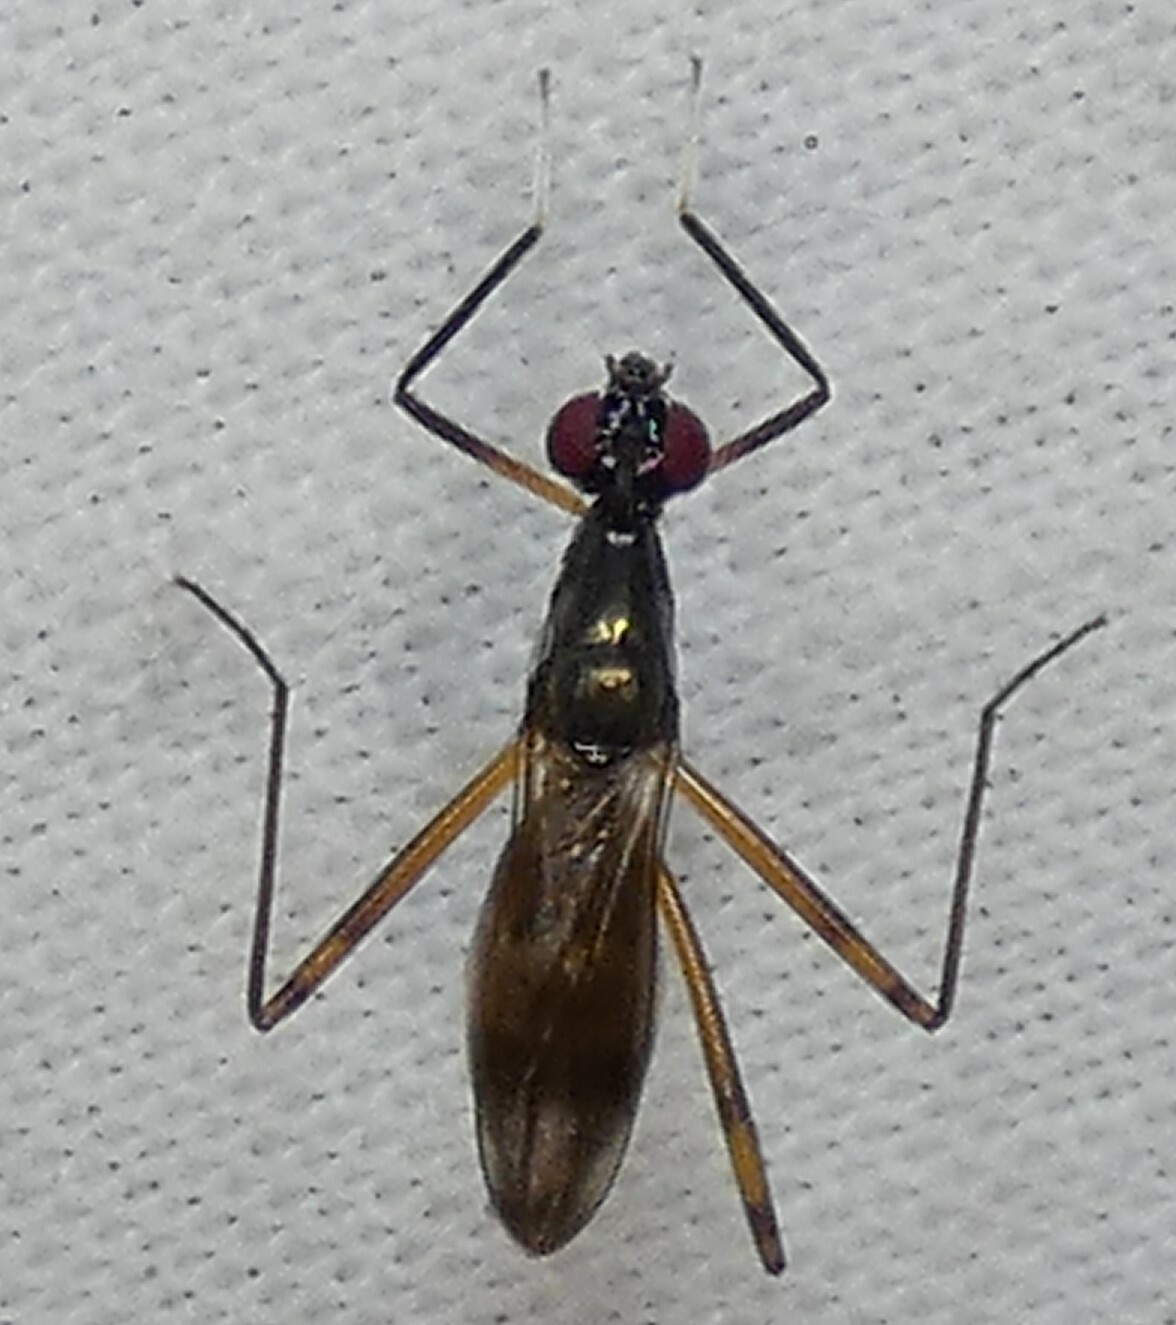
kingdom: Animalia
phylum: Arthropoda
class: Insecta
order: Diptera
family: Micropezidae
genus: Rainieria
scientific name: Rainieria antennaepes
